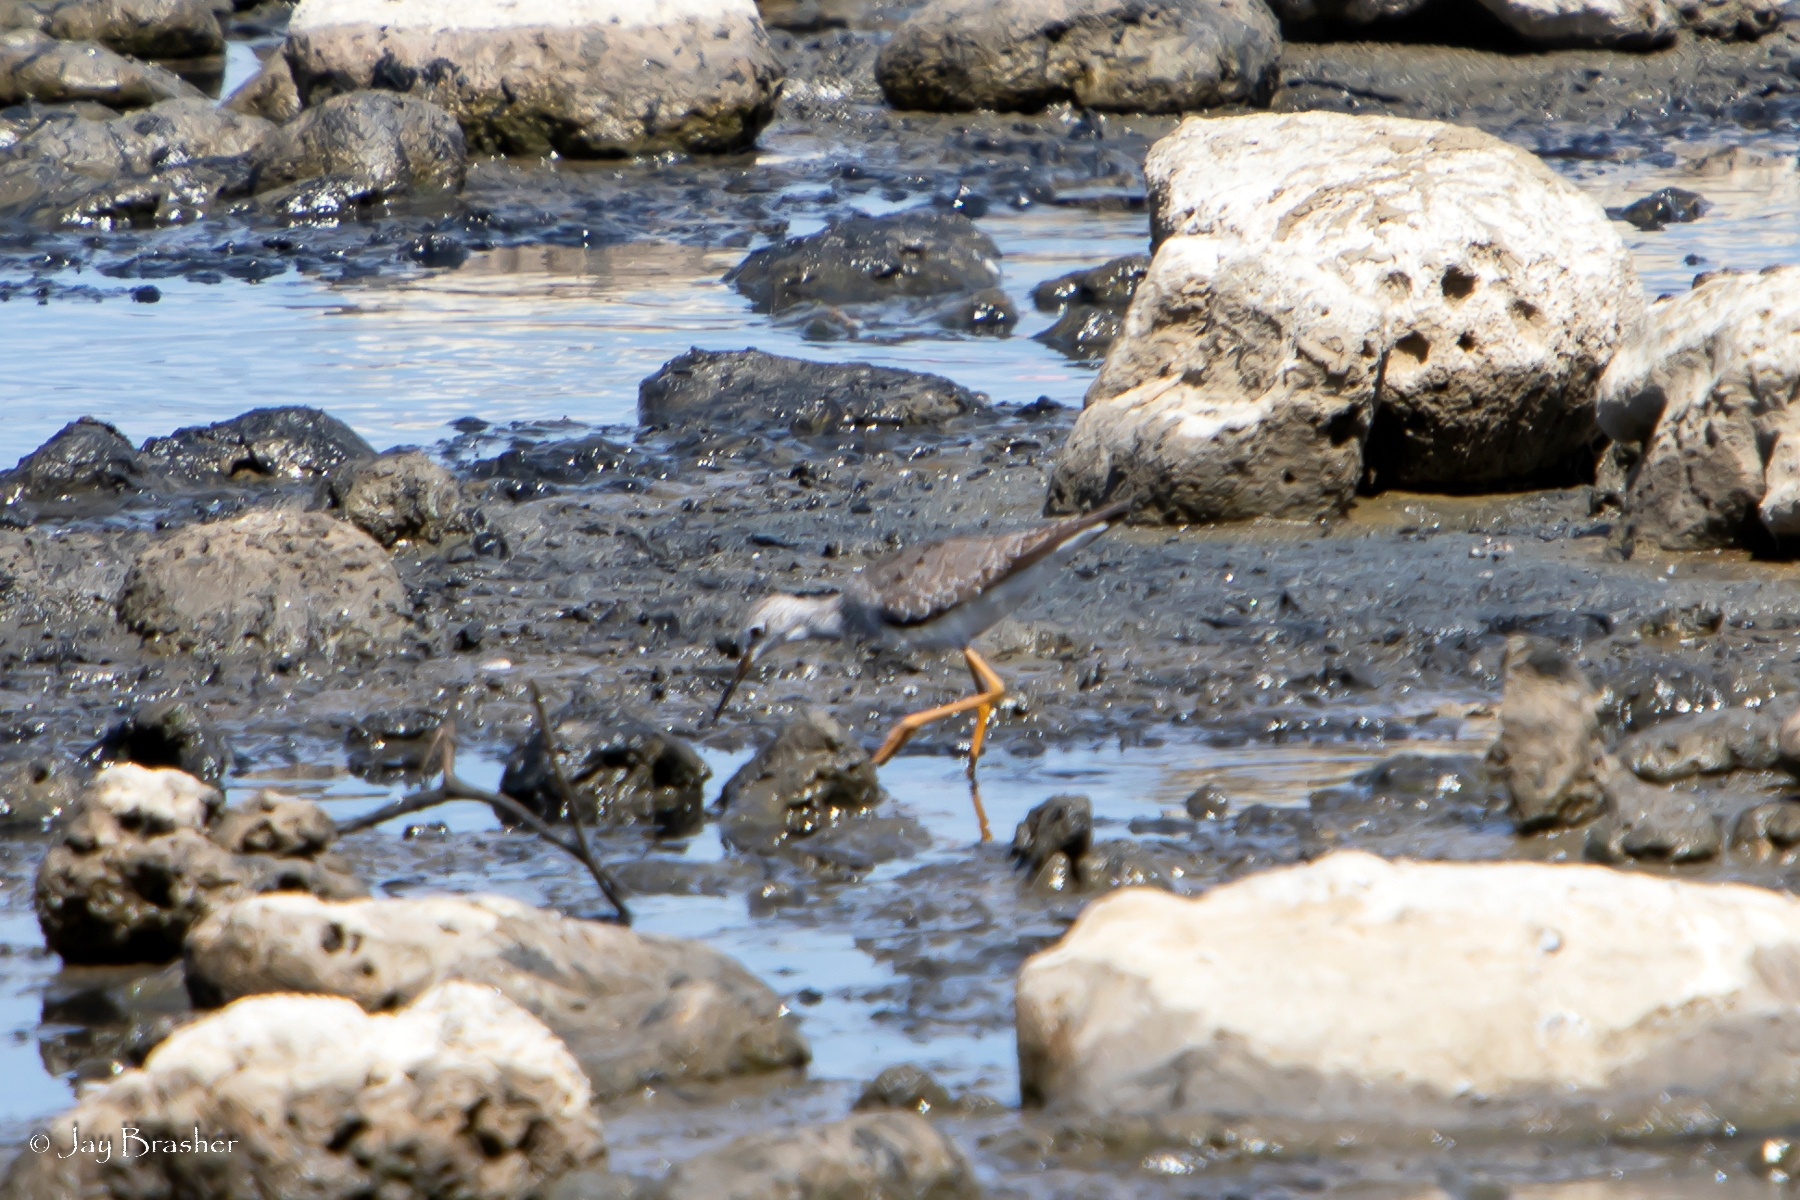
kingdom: Animalia
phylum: Chordata
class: Aves
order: Charadriiformes
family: Scolopacidae
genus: Tringa
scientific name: Tringa flavipes
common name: Lesser yellowlegs
